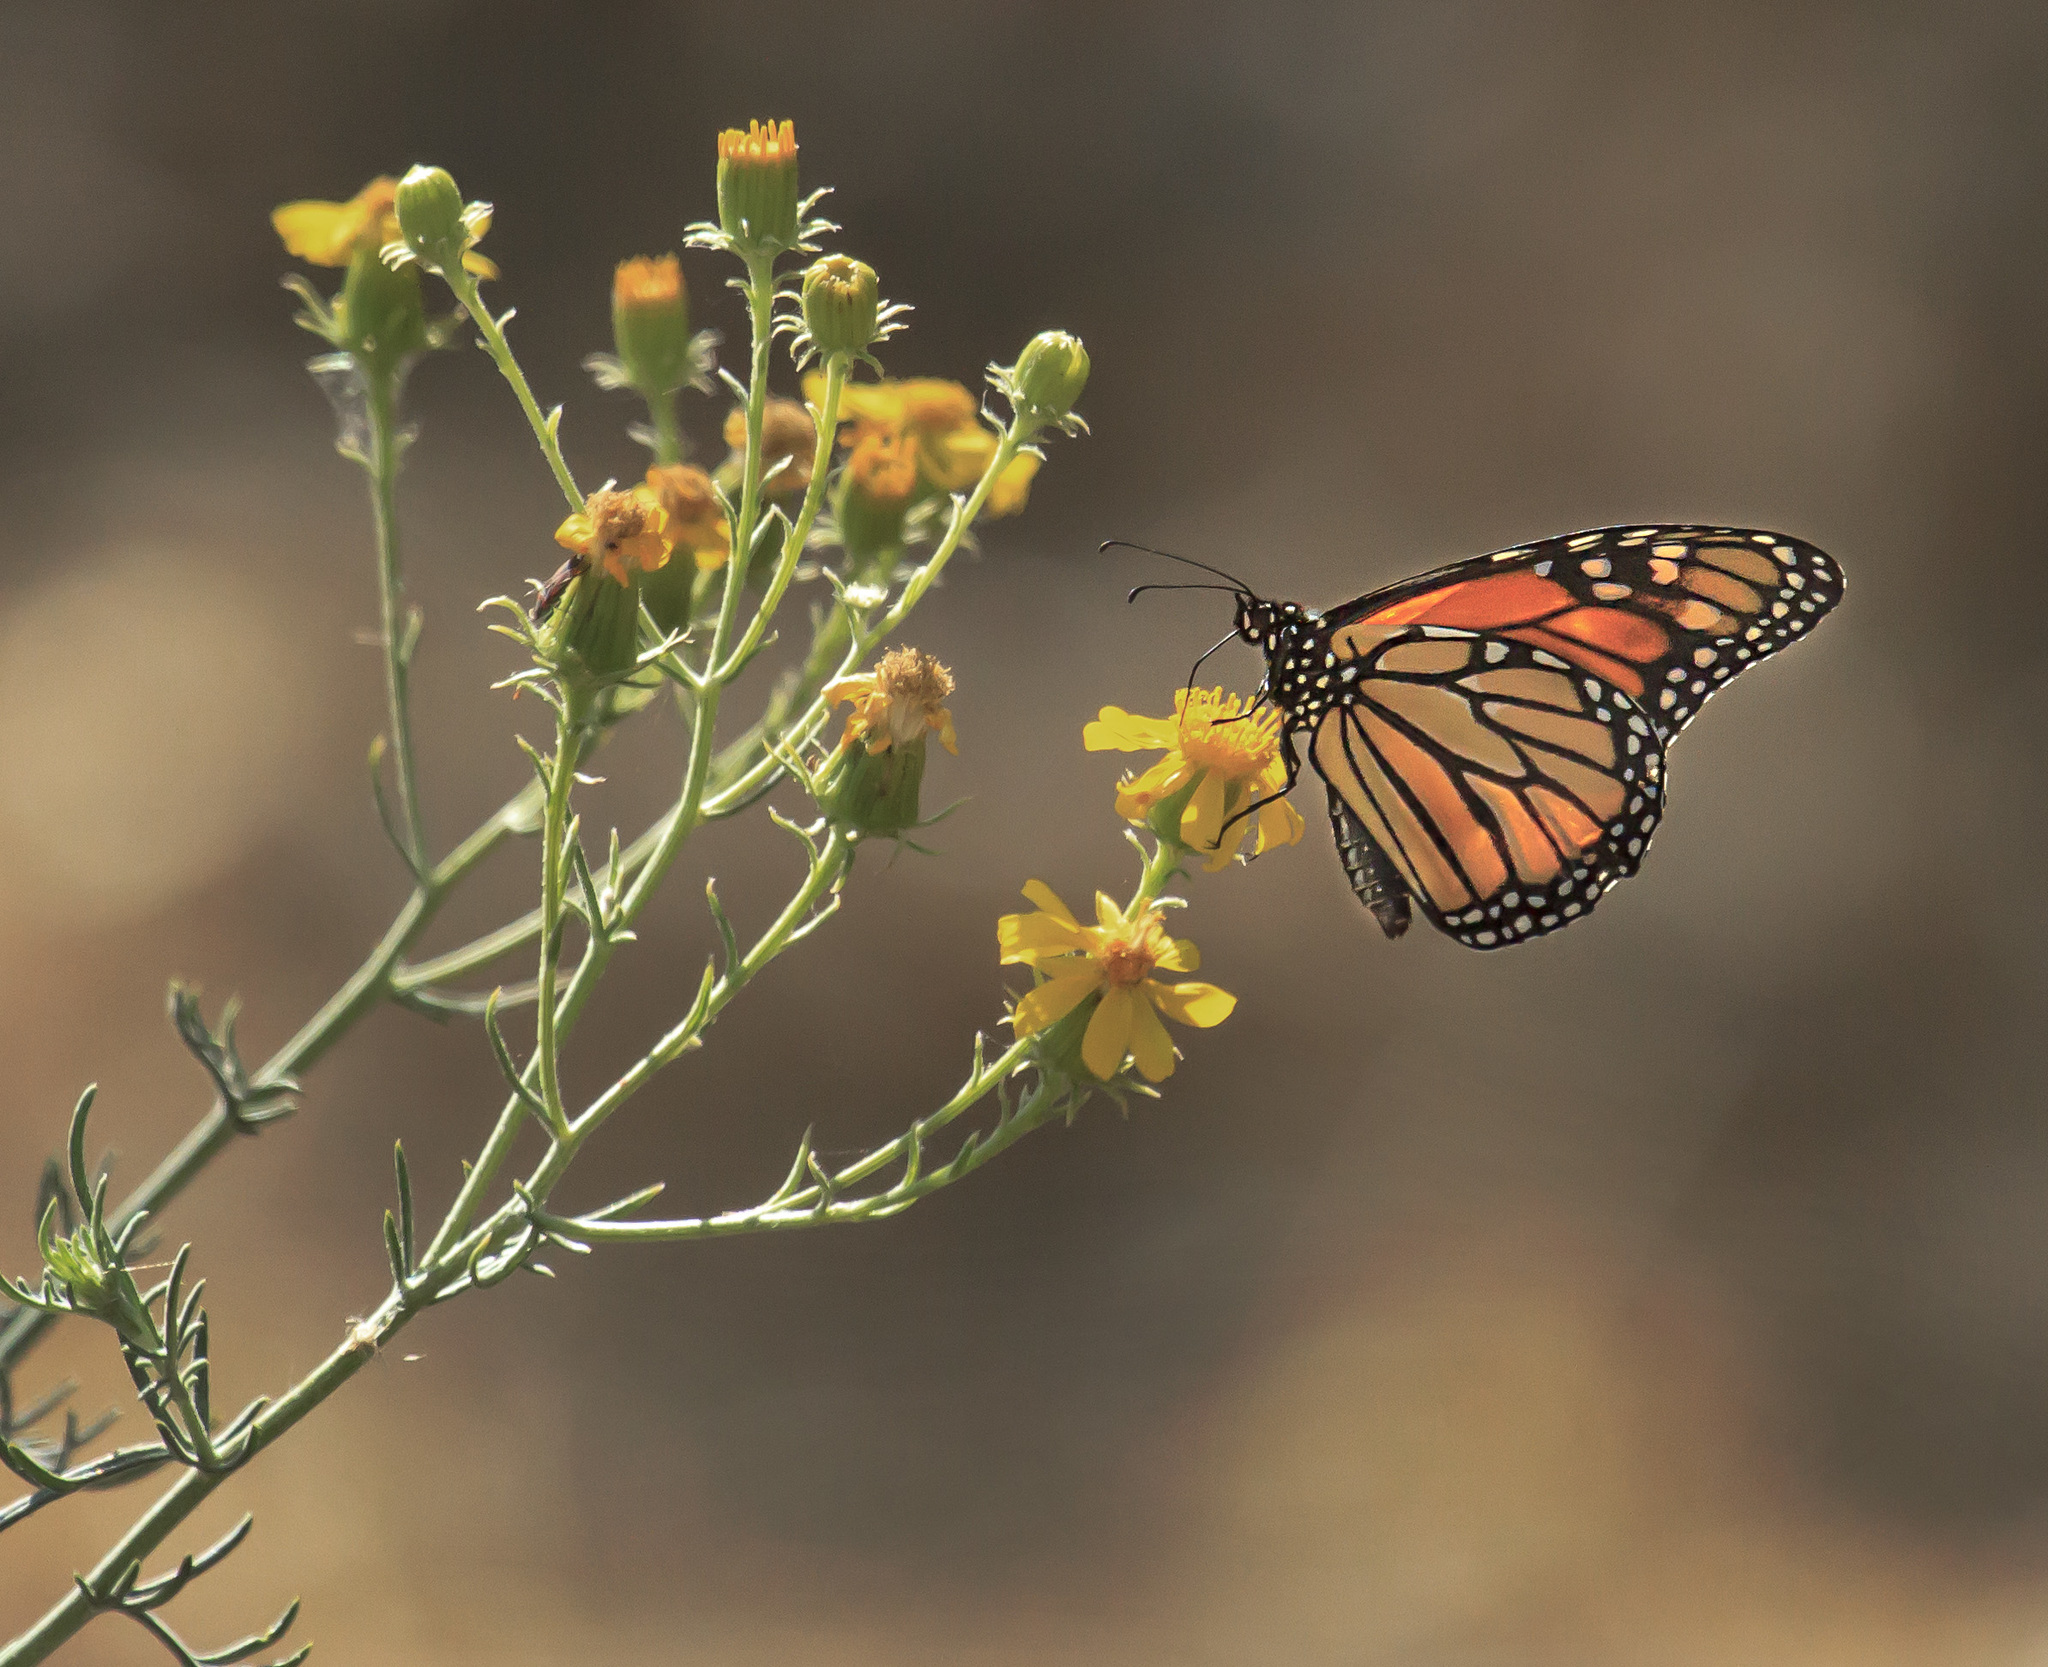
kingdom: Animalia
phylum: Arthropoda
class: Insecta
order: Lepidoptera
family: Nymphalidae
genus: Danaus
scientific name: Danaus plexippus
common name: Monarch
